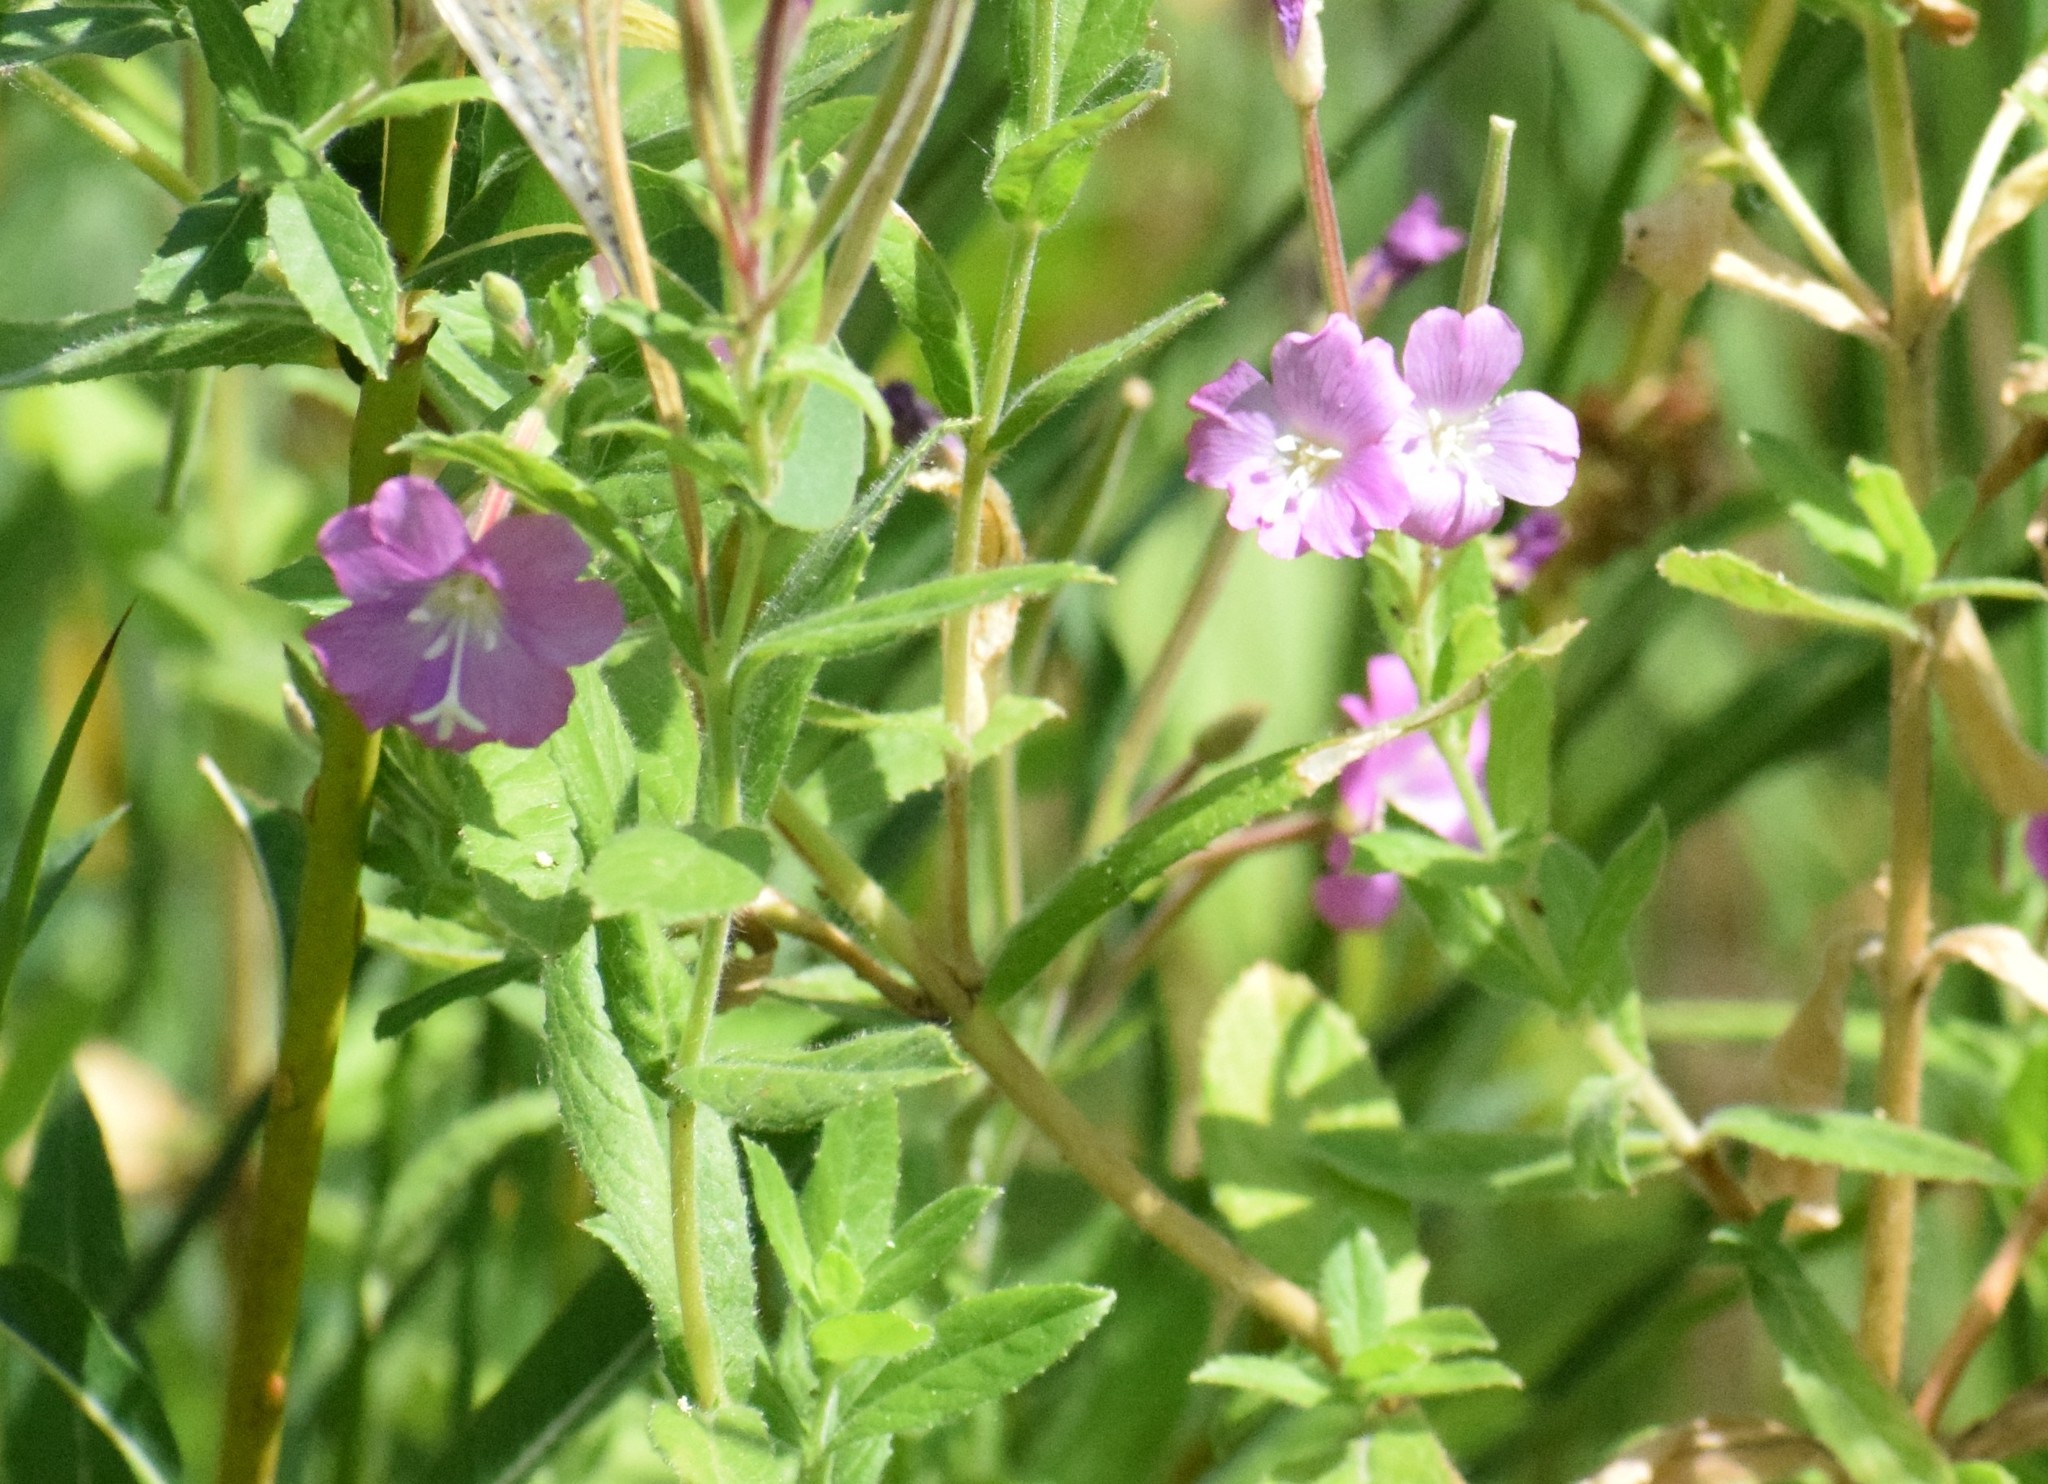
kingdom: Plantae
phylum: Tracheophyta
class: Magnoliopsida
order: Myrtales
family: Onagraceae
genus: Epilobium
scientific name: Epilobium hirsutum
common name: Great willowherb
